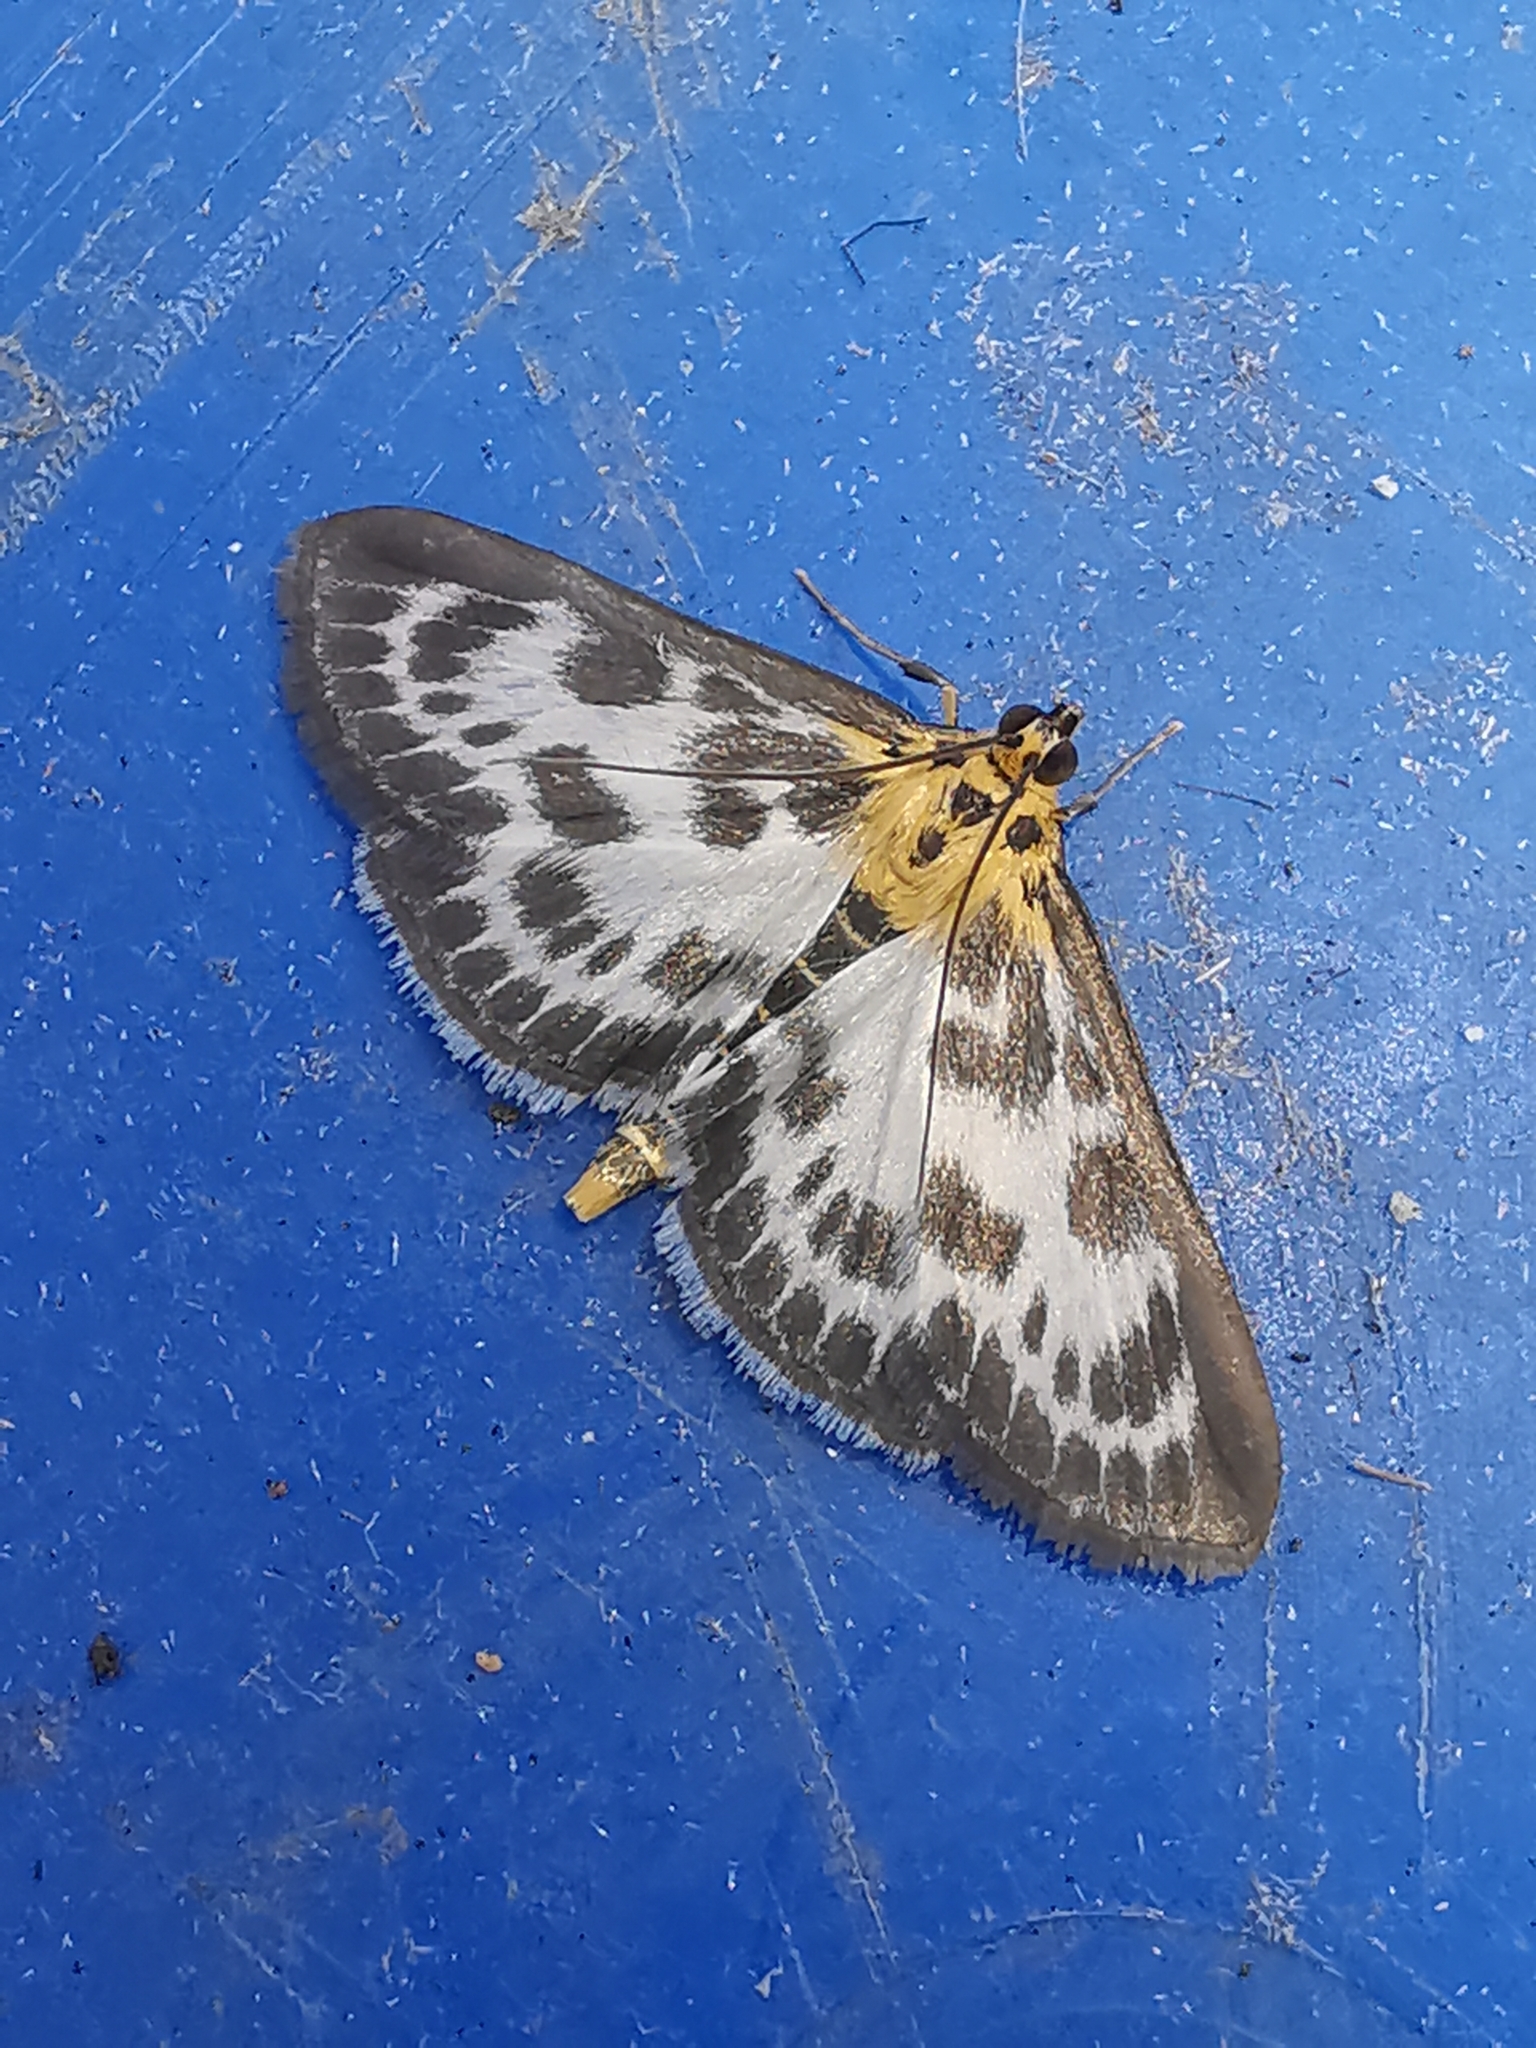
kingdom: Animalia
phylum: Arthropoda
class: Insecta
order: Lepidoptera
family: Crambidae
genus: Anania
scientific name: Anania hortulata
